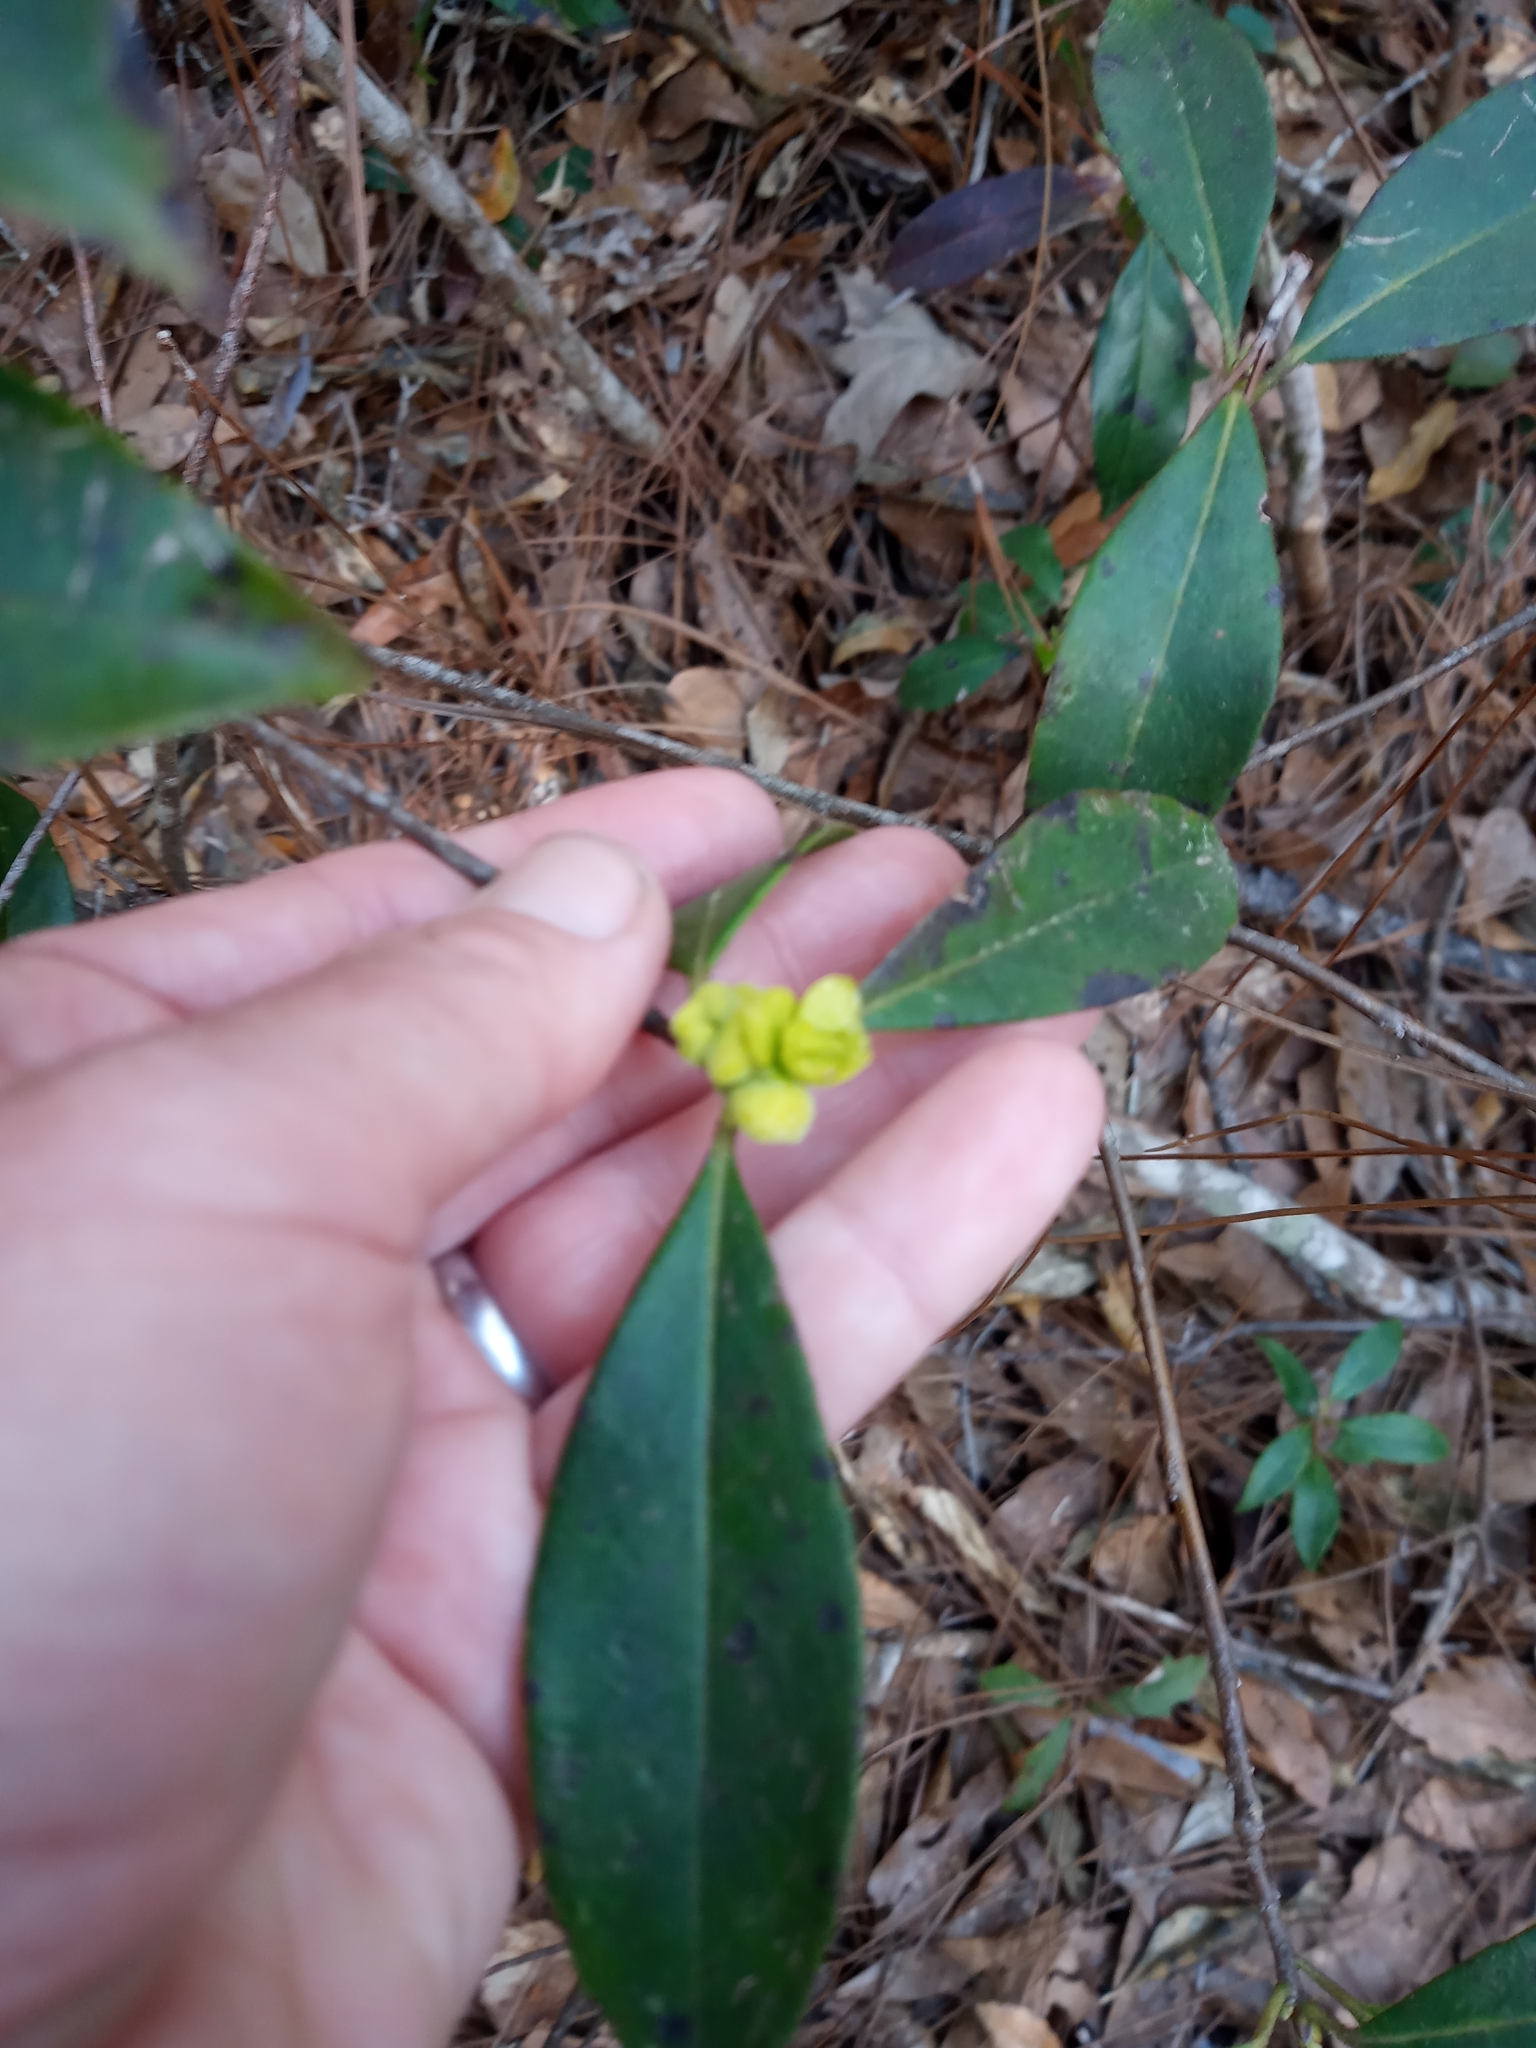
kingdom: Fungi
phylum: Basidiomycota
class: Exobasidiomycetes
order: Exobasidiales
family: Exobasidiaceae
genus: Exobasidium
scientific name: Exobasidium symploci
